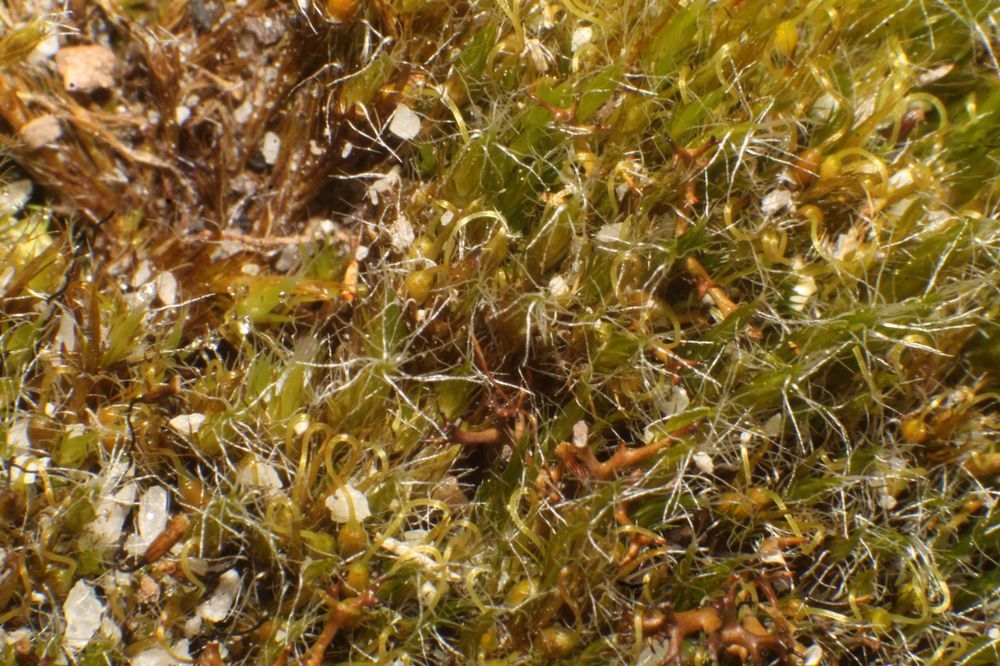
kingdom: Plantae
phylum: Bryophyta
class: Bryopsida
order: Dicranales
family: Leucobryaceae
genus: Campylopus
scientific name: Campylopus introflexus
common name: Heath star moss
